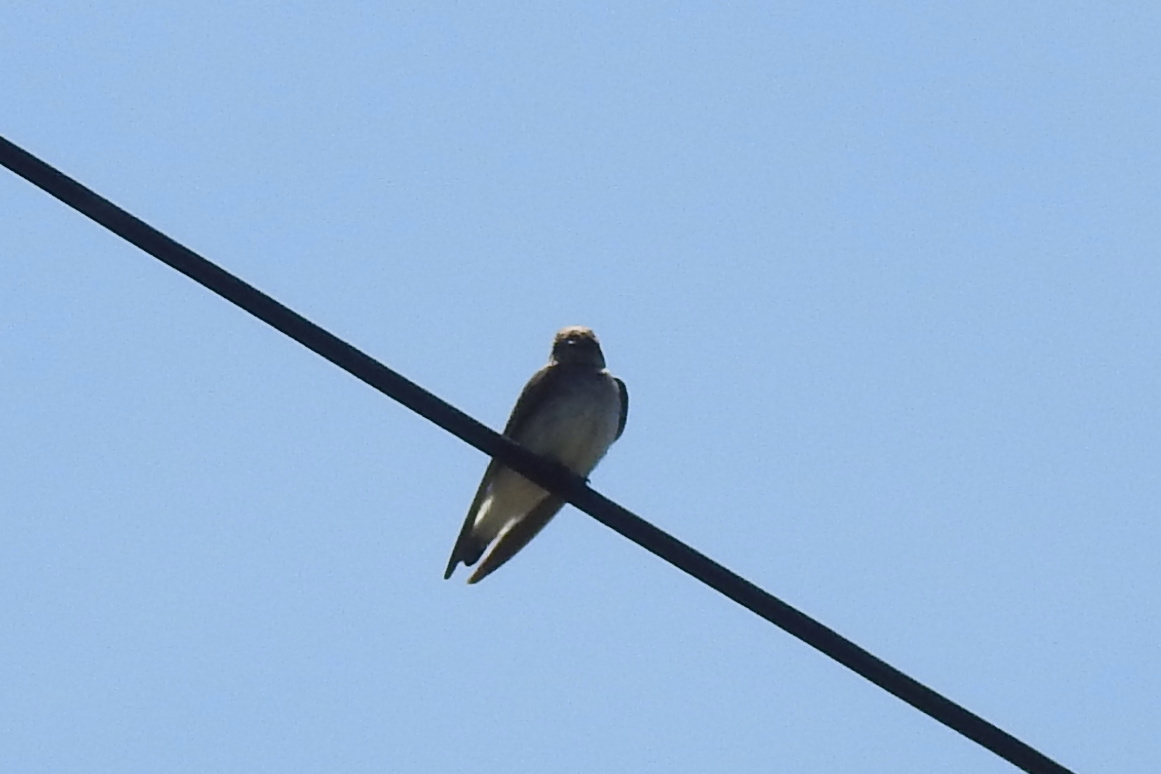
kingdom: Animalia
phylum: Chordata
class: Aves
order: Passeriformes
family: Hirundinidae
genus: Stelgidopteryx
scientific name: Stelgidopteryx serripennis
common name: Northern rough-winged swallow
